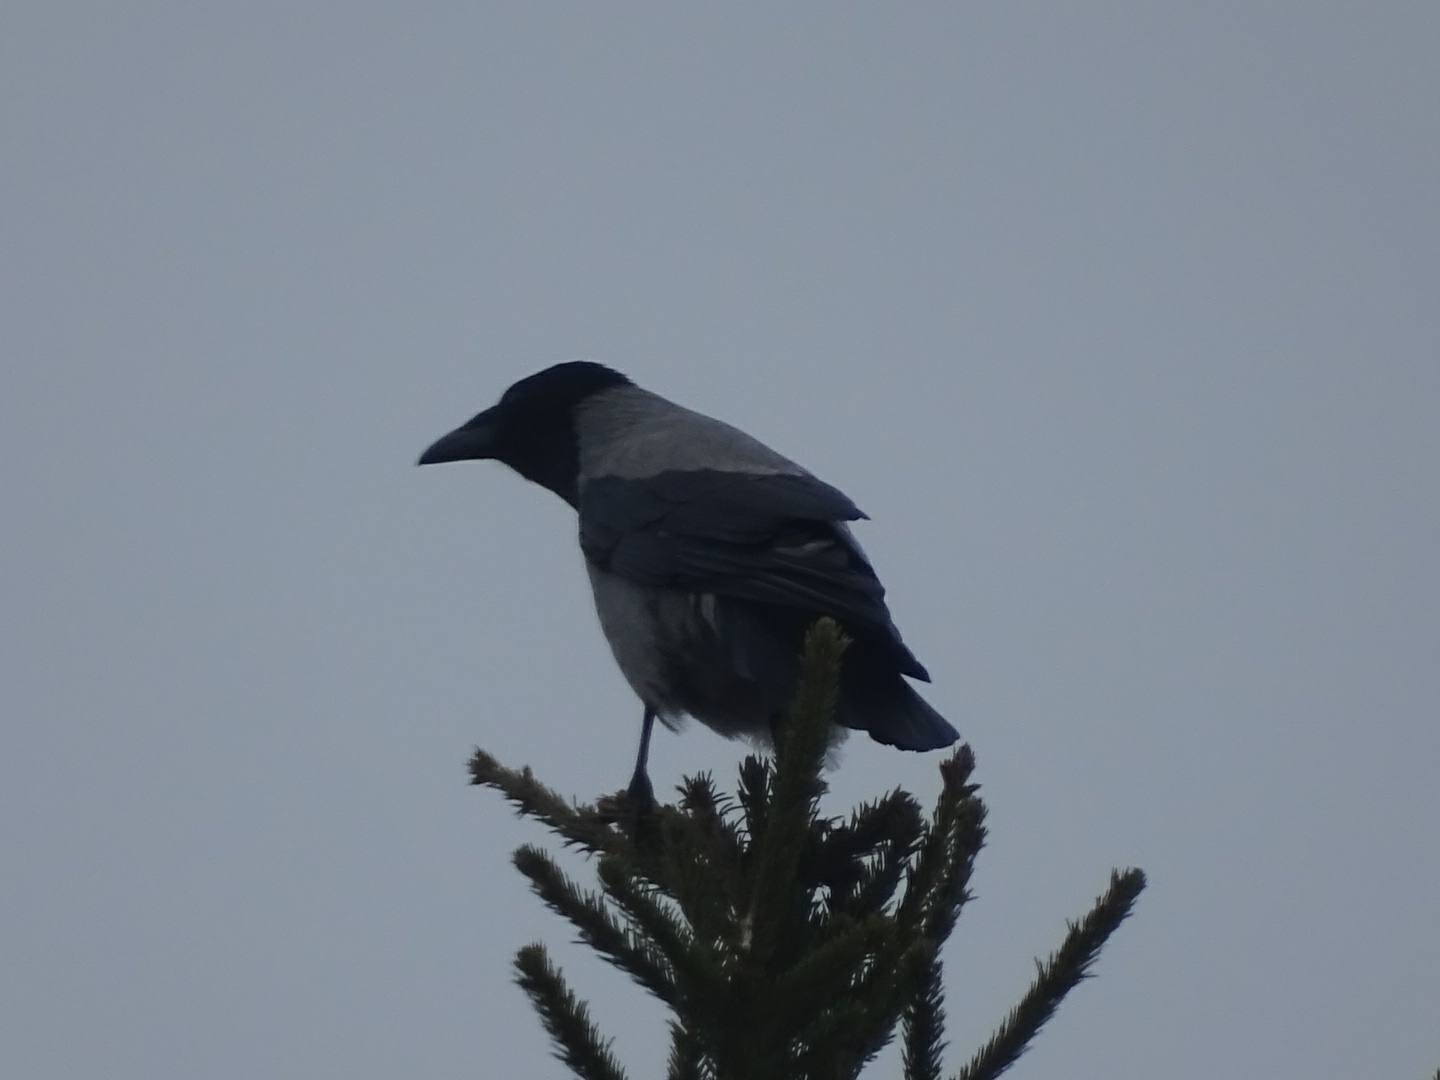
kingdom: Animalia
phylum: Chordata
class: Aves
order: Passeriformes
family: Corvidae
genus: Corvus
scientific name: Corvus cornix
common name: Hooded crow
